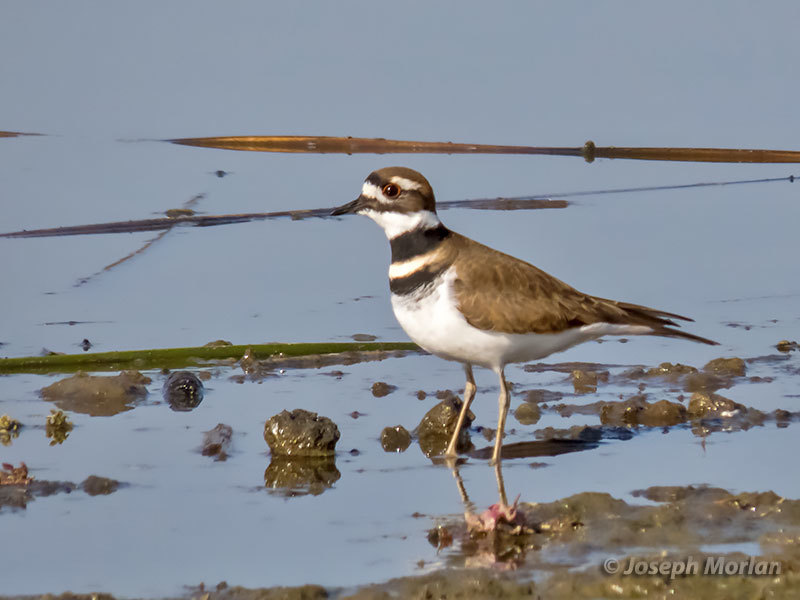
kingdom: Animalia
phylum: Chordata
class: Aves
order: Charadriiformes
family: Charadriidae
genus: Charadrius
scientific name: Charadrius vociferus
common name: Killdeer
